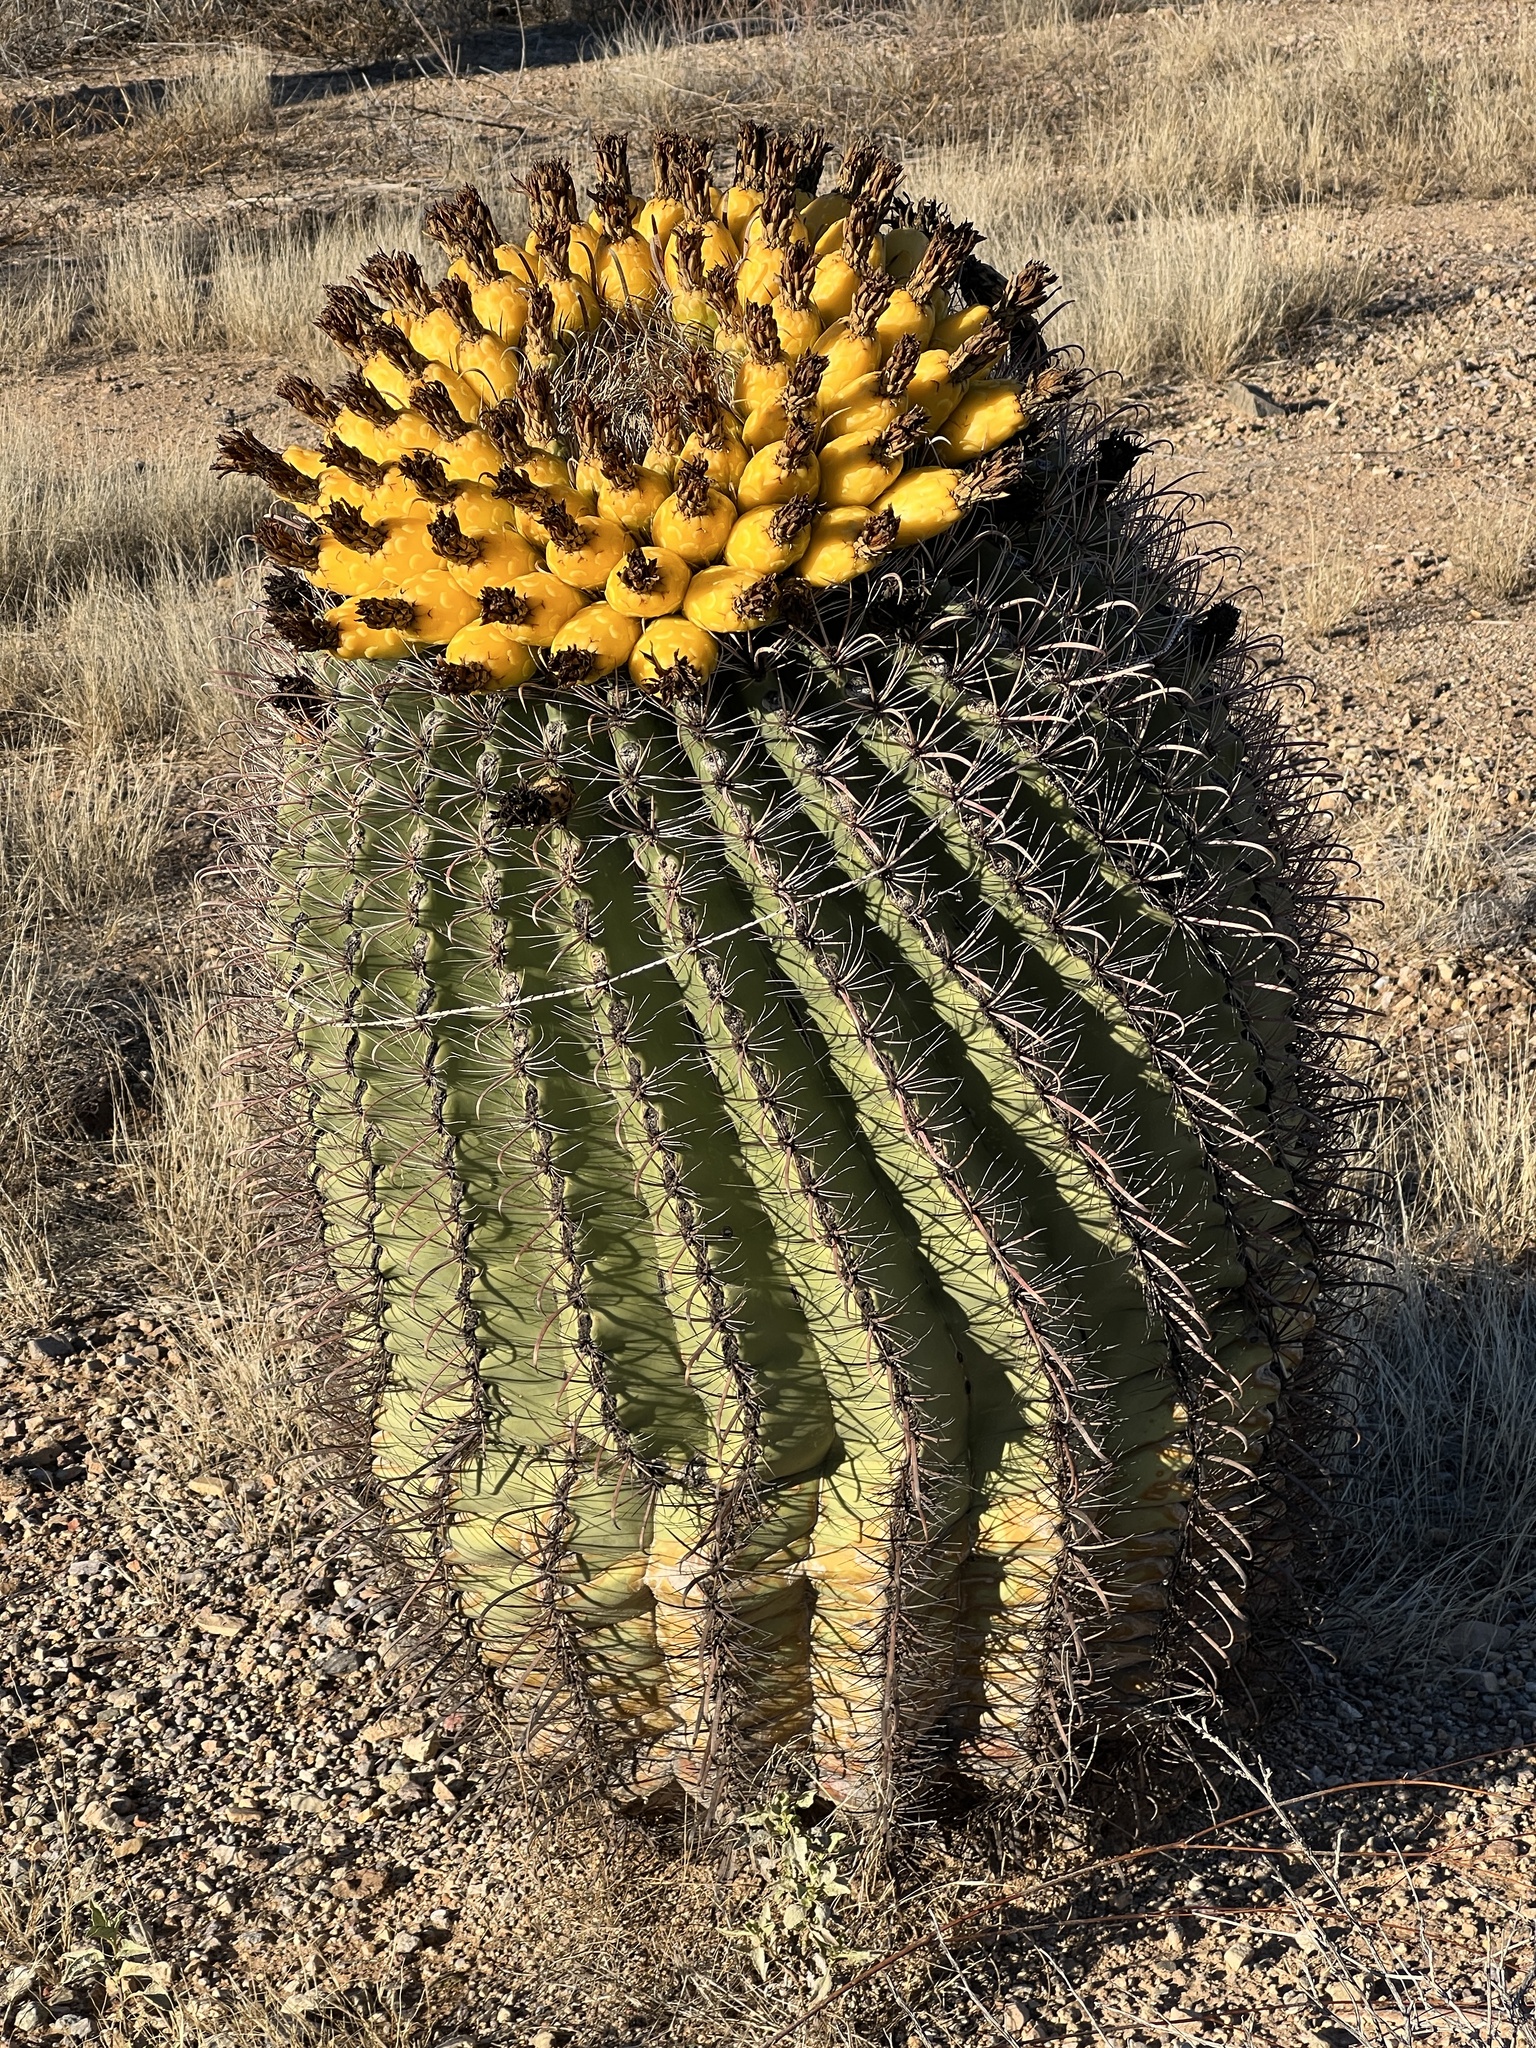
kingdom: Plantae
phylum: Tracheophyta
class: Magnoliopsida
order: Caryophyllales
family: Cactaceae
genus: Ferocactus
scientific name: Ferocactus wislizeni
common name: Candy barrel cactus
